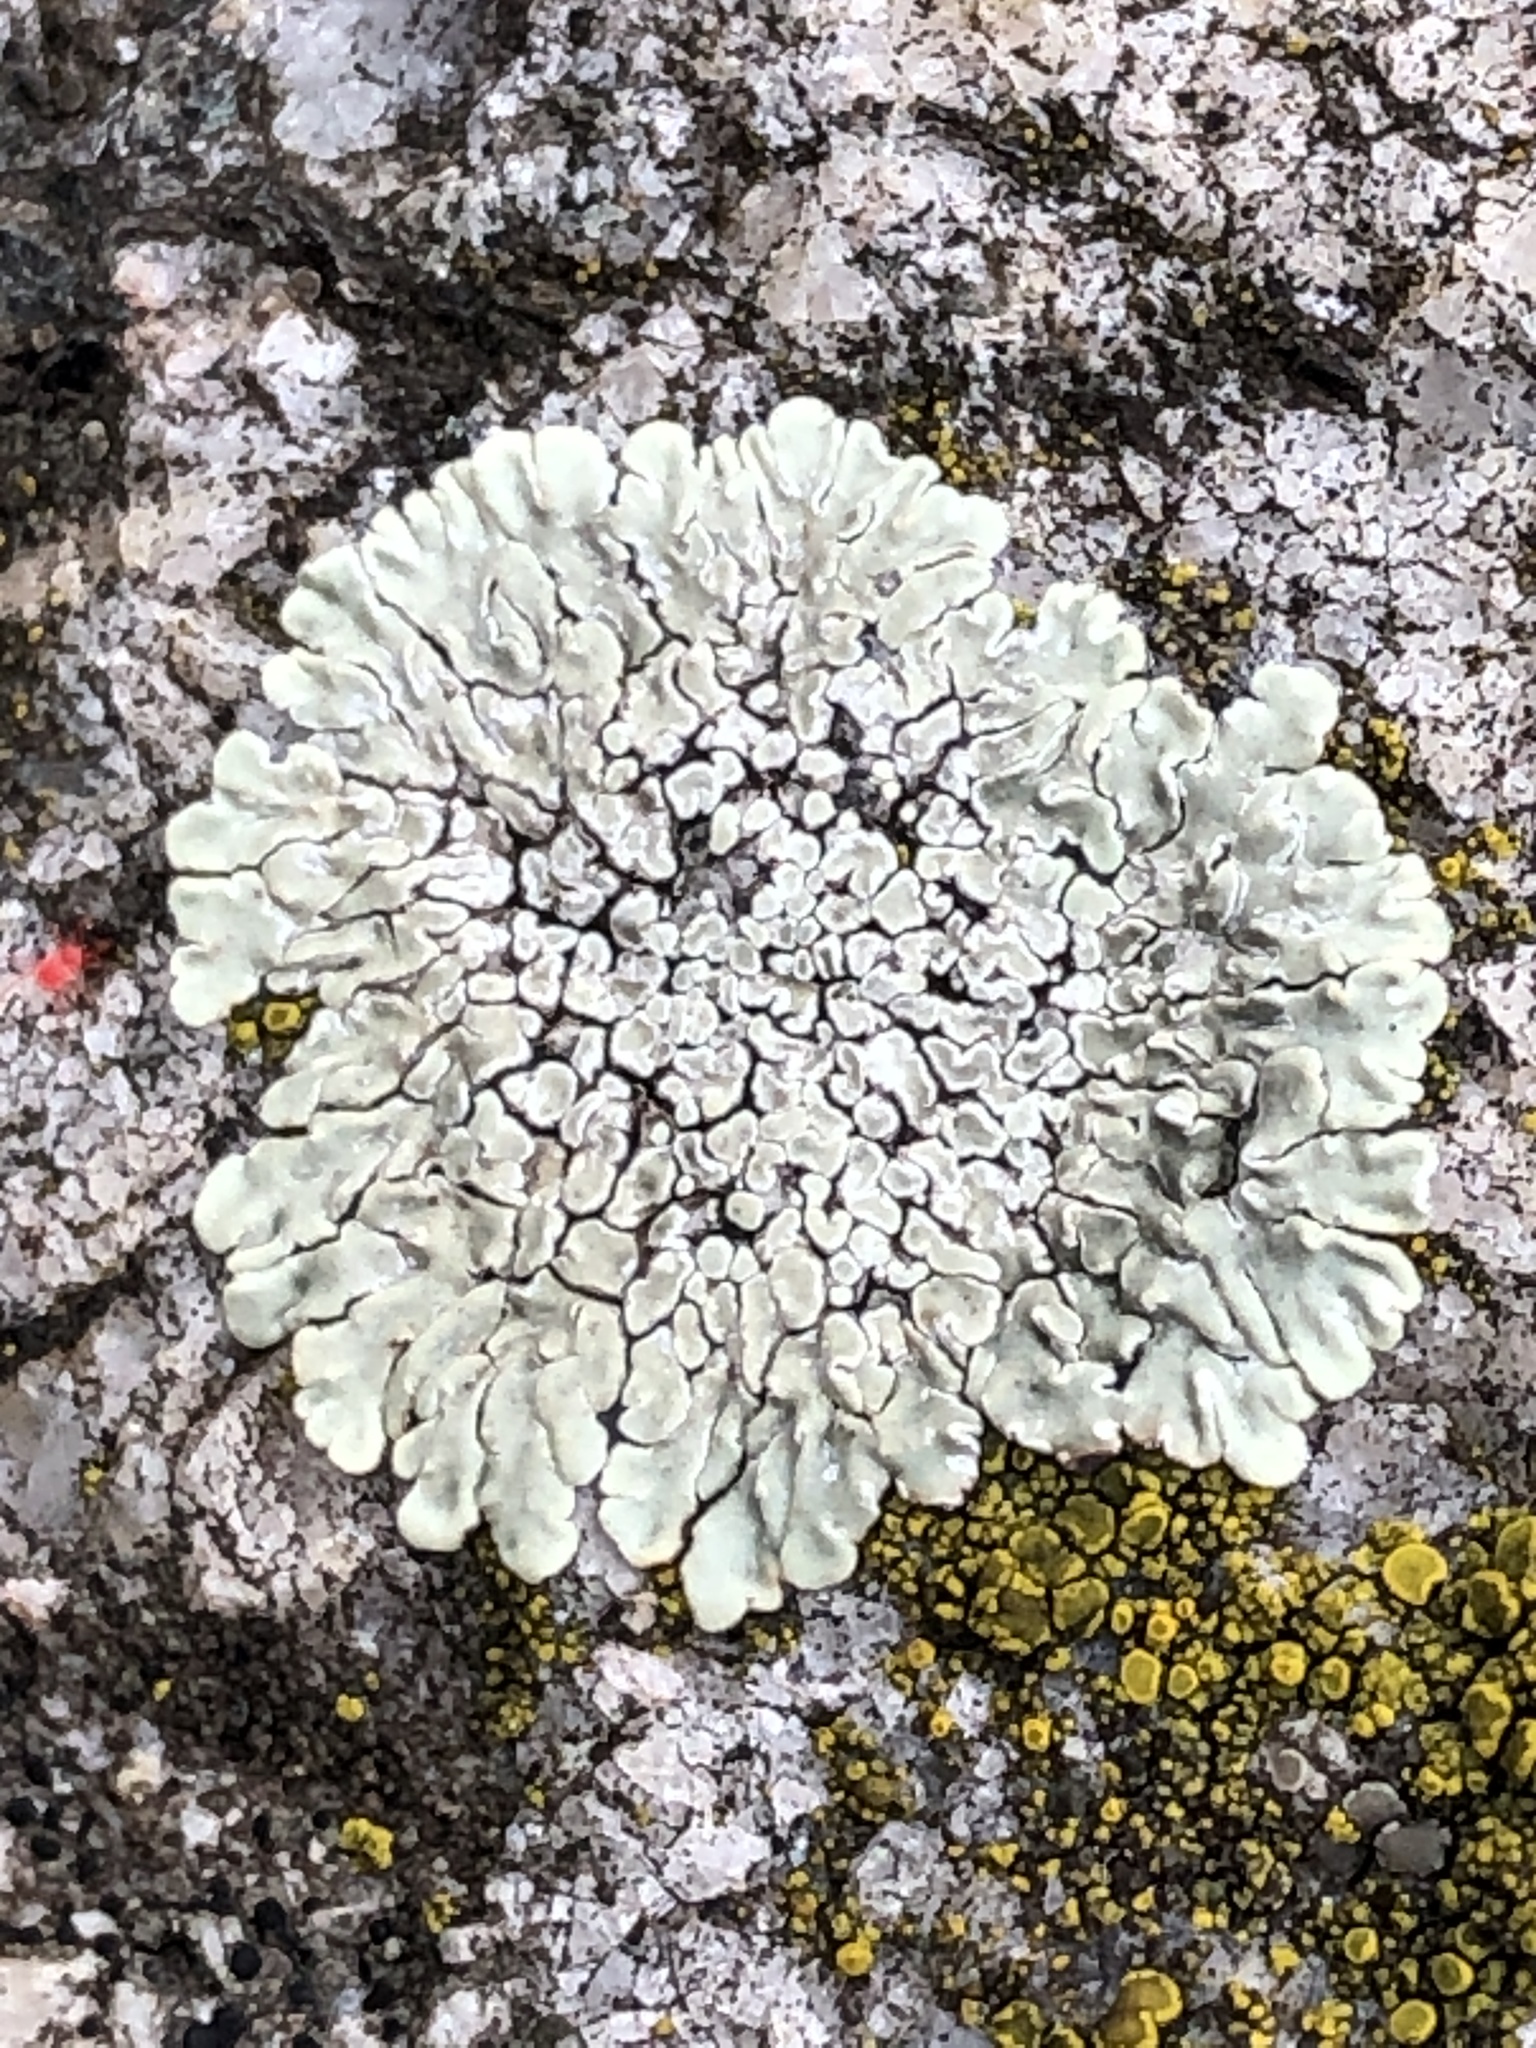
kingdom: Fungi
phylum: Ascomycota
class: Lecanoromycetes
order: Lecanorales
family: Lecanoraceae
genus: Protoparmeliopsis
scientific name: Protoparmeliopsis muralis
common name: Stonewall rim lichen
